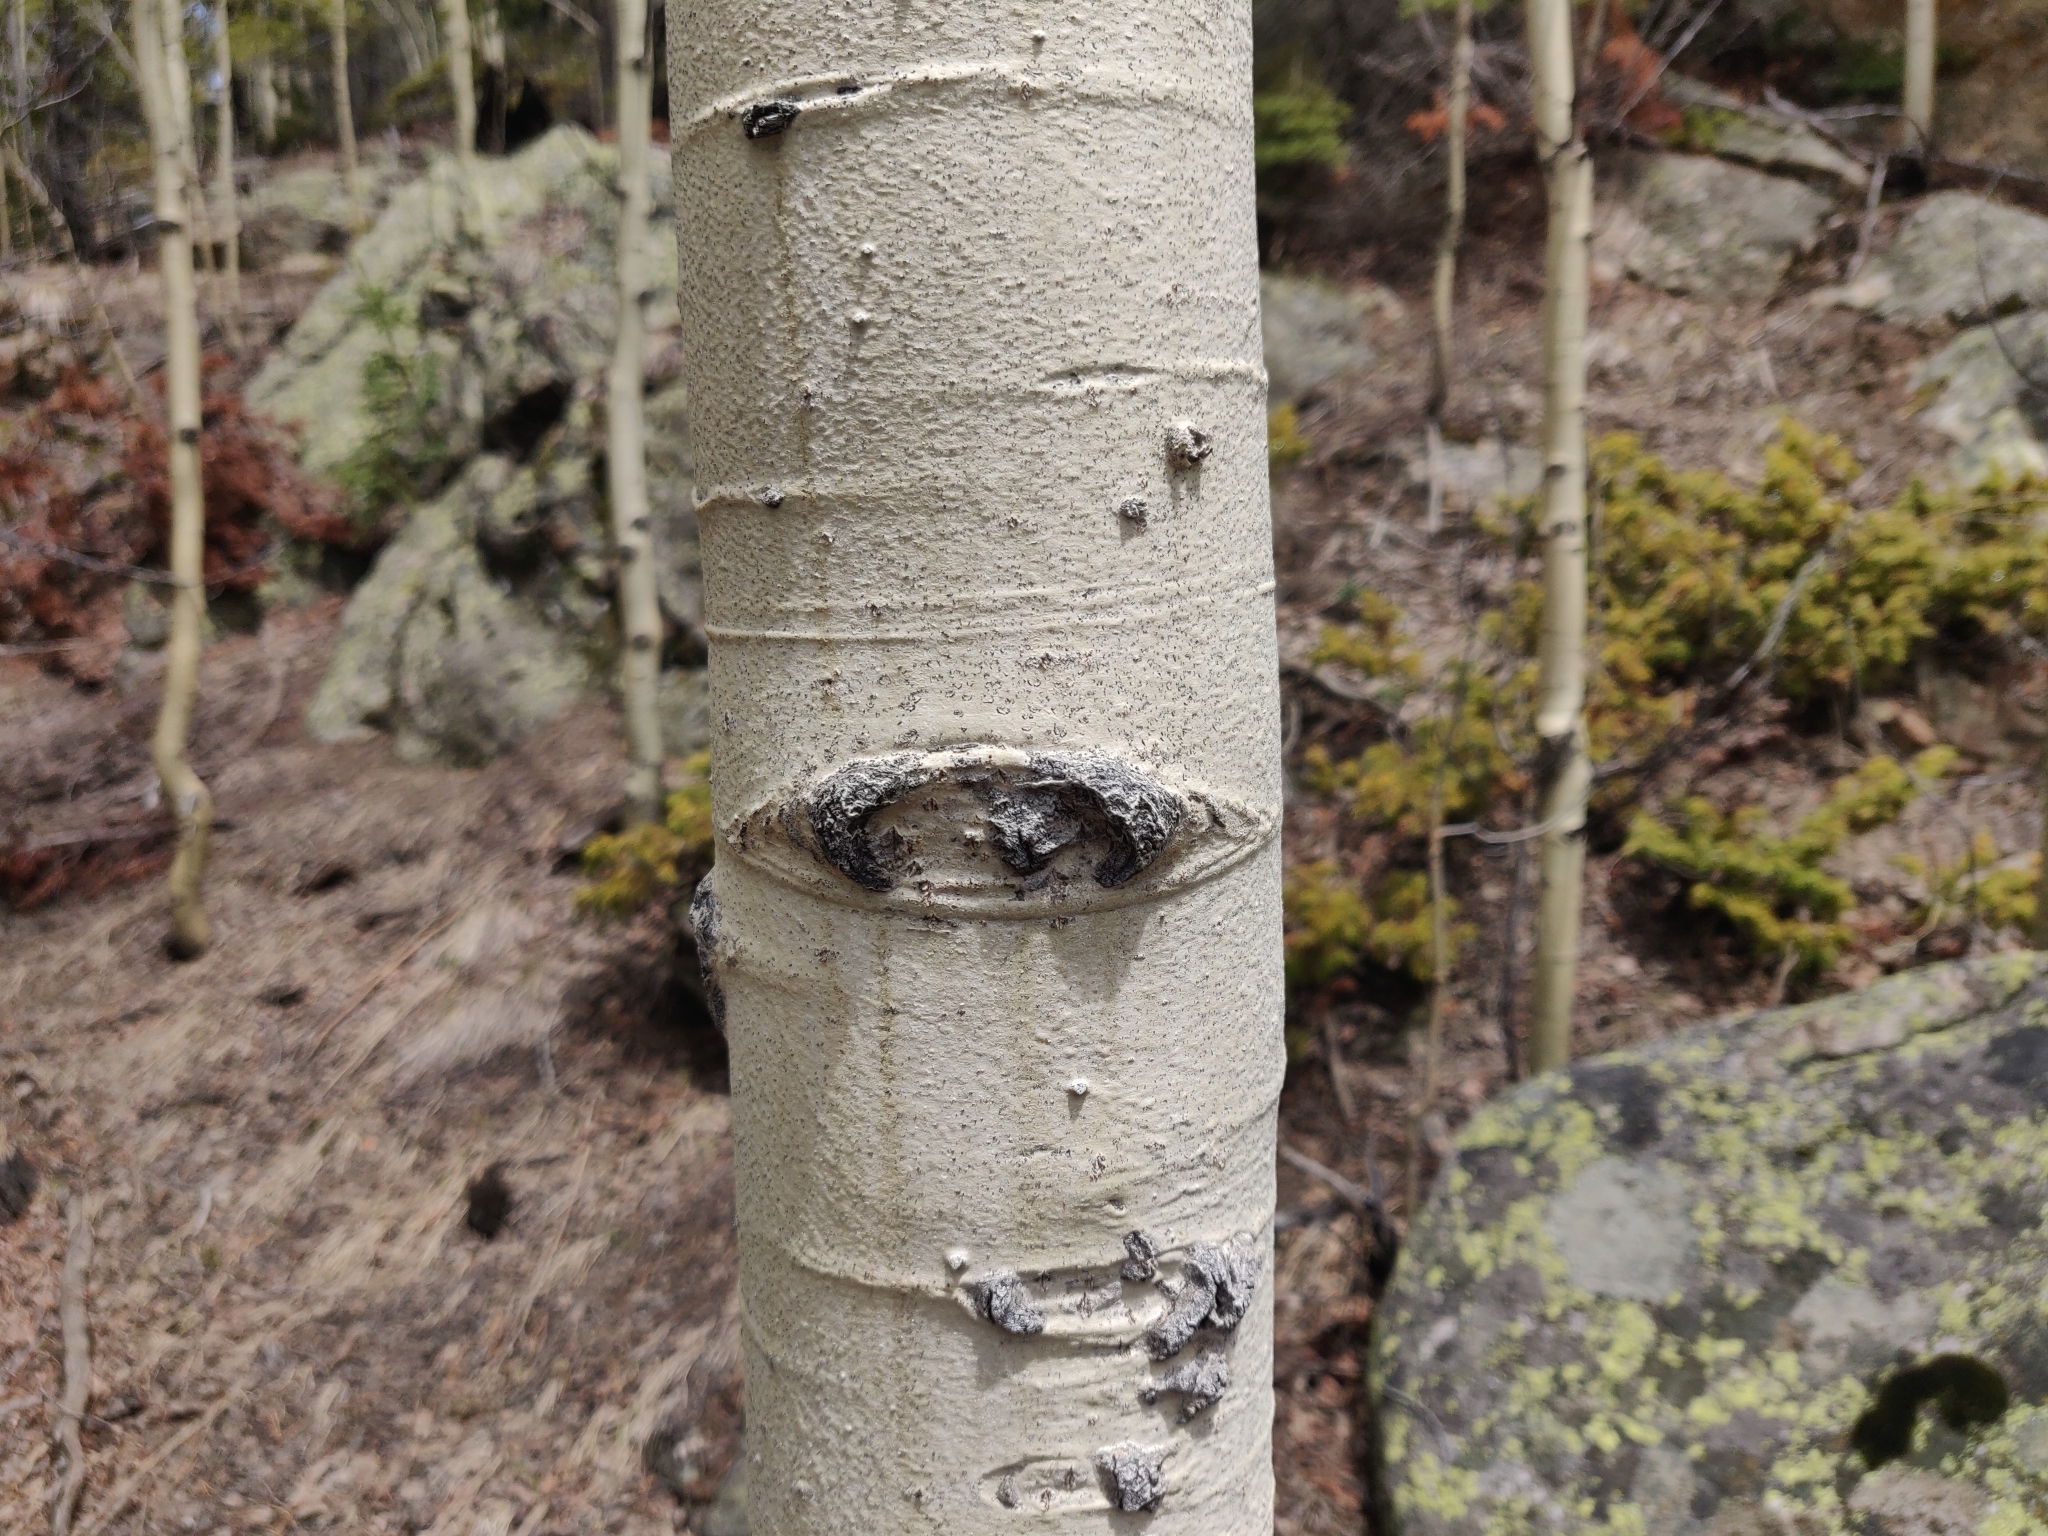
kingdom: Plantae
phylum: Tracheophyta
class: Magnoliopsida
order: Malpighiales
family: Salicaceae
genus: Populus
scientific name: Populus tremuloides
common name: Quaking aspen
